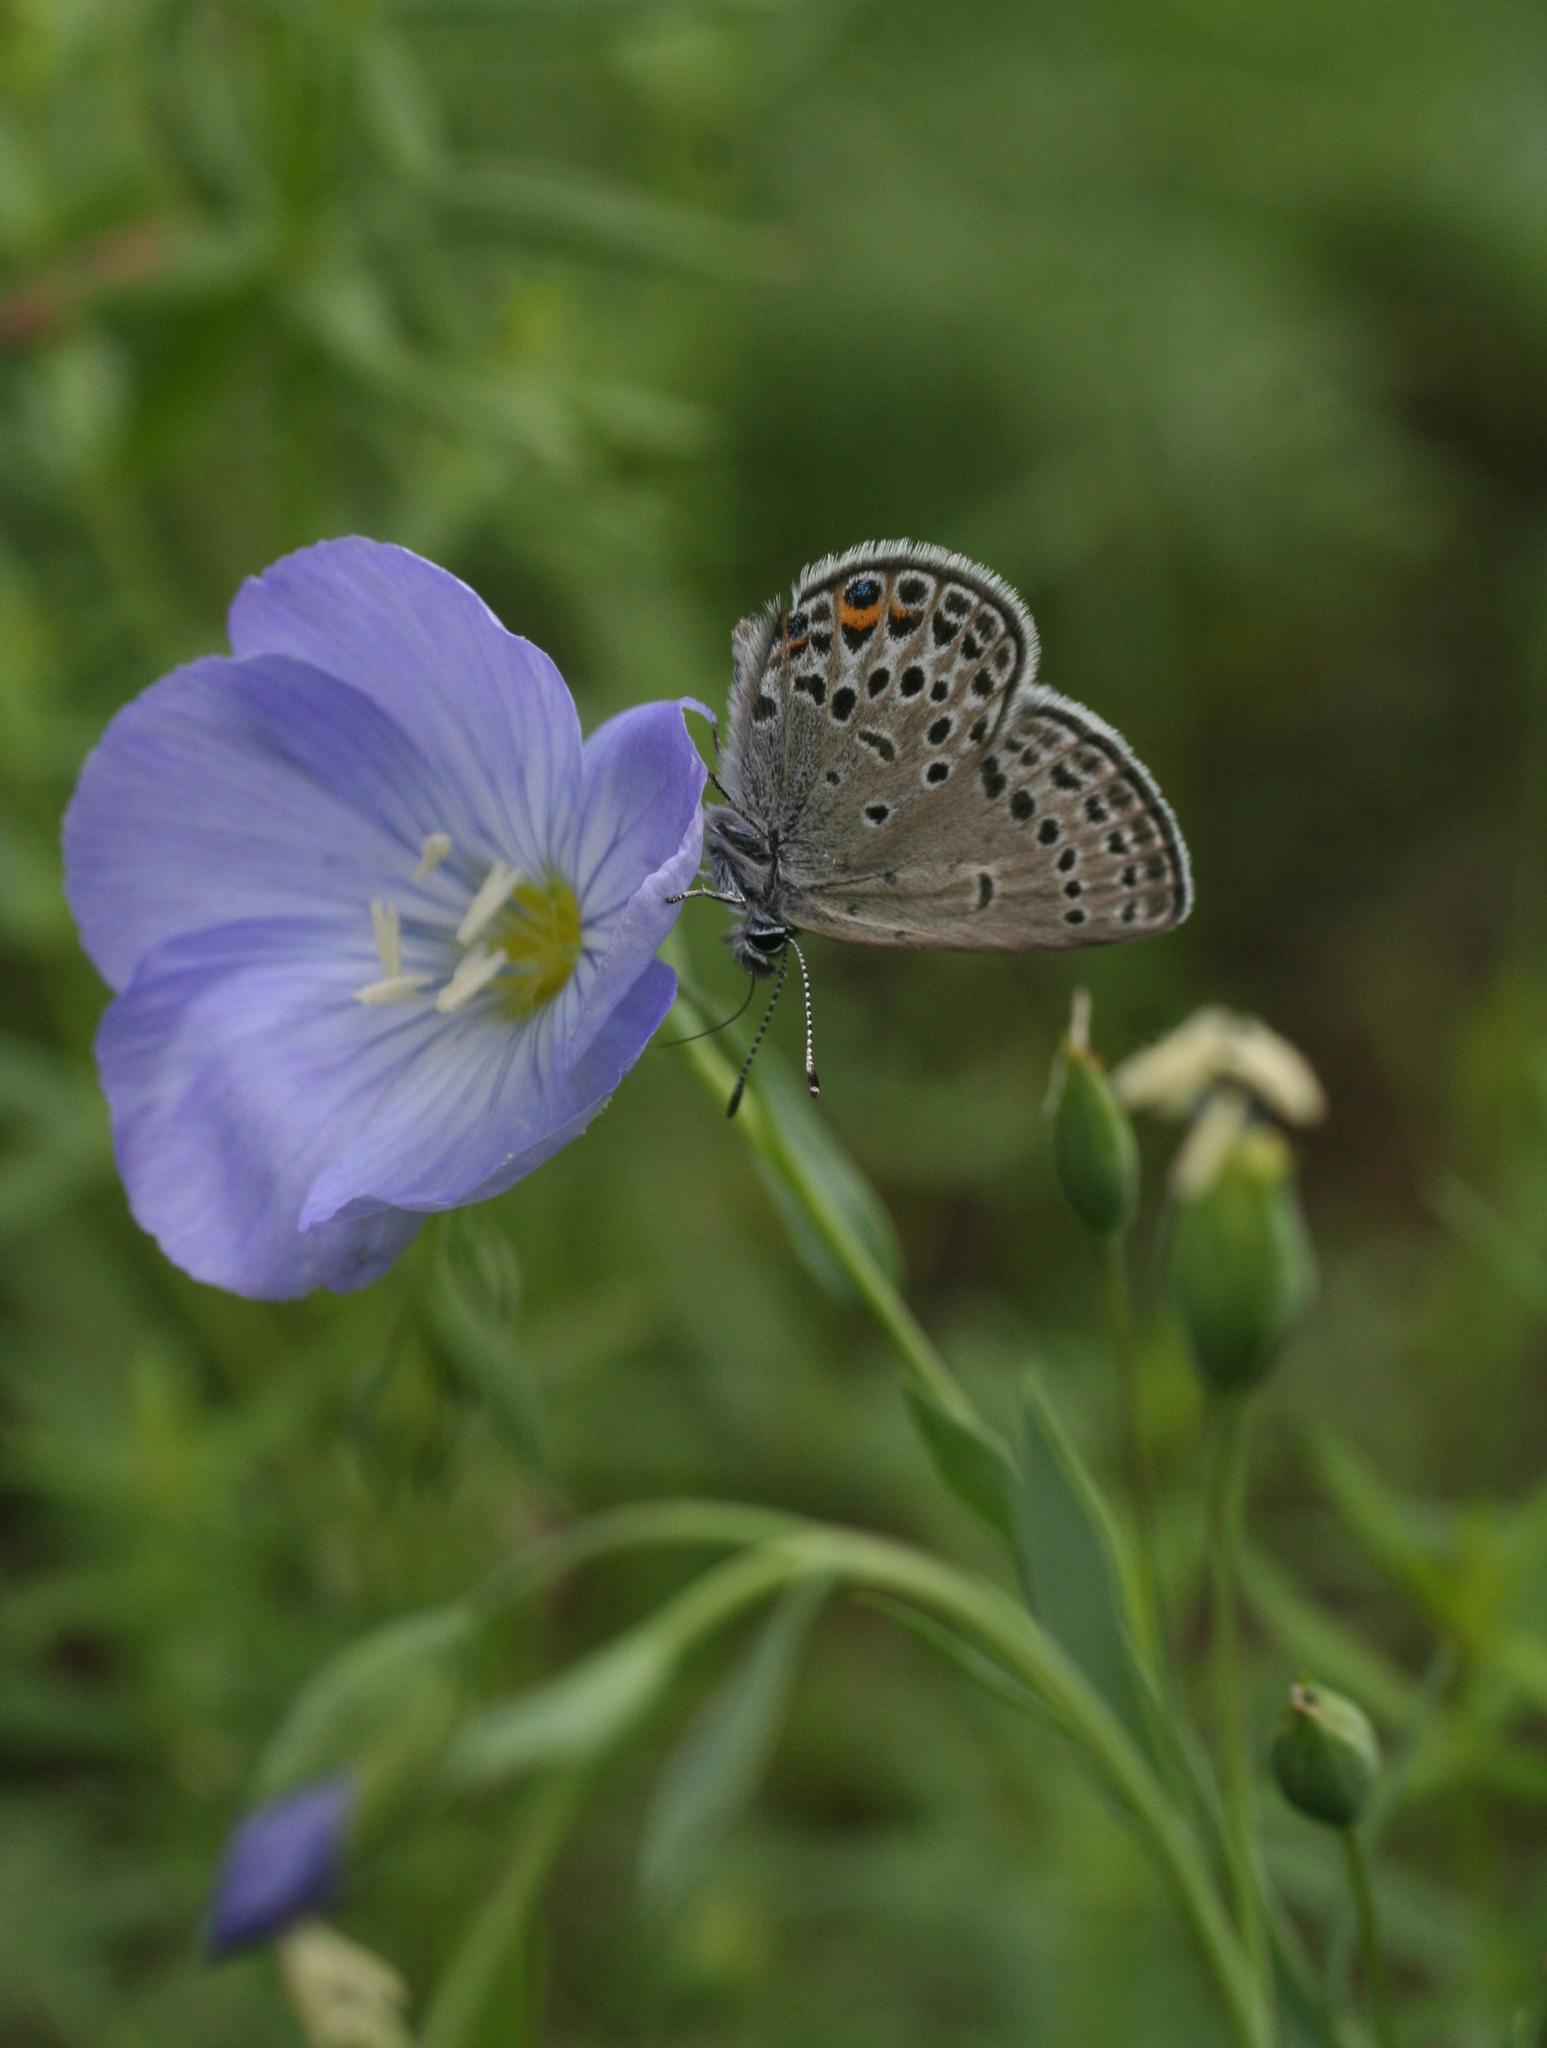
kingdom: Plantae
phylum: Tracheophyta
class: Magnoliopsida
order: Malpighiales
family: Linaceae
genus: Linum
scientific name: Linum komarovii
